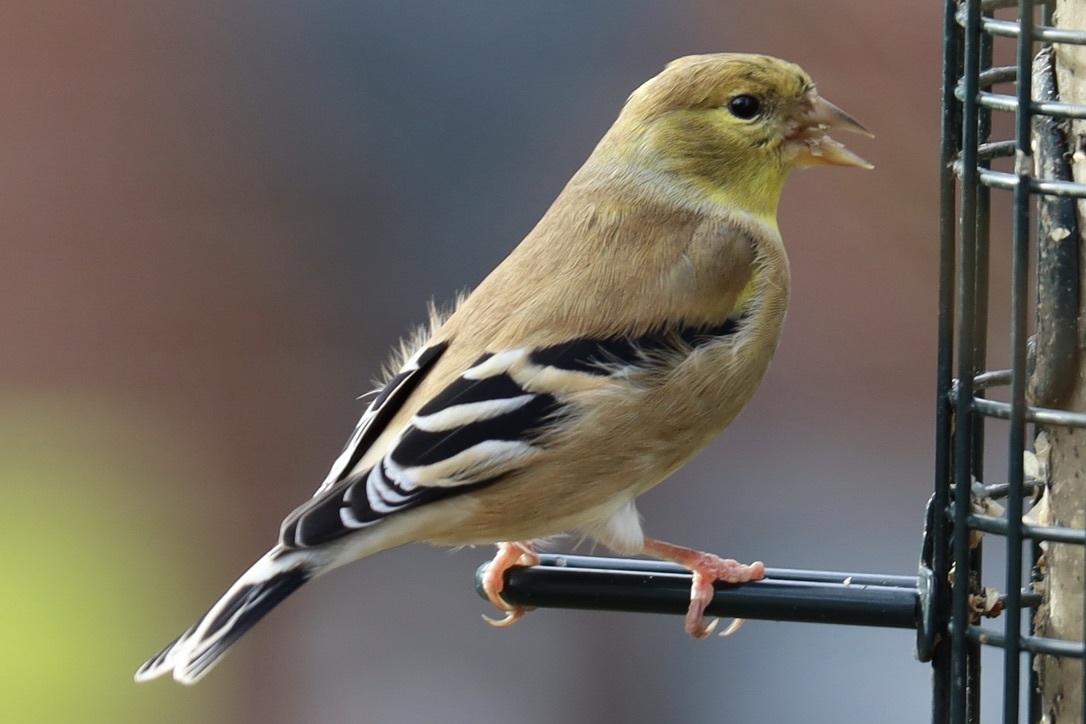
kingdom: Animalia
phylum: Chordata
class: Aves
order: Passeriformes
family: Fringillidae
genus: Spinus
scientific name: Spinus tristis
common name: American goldfinch
